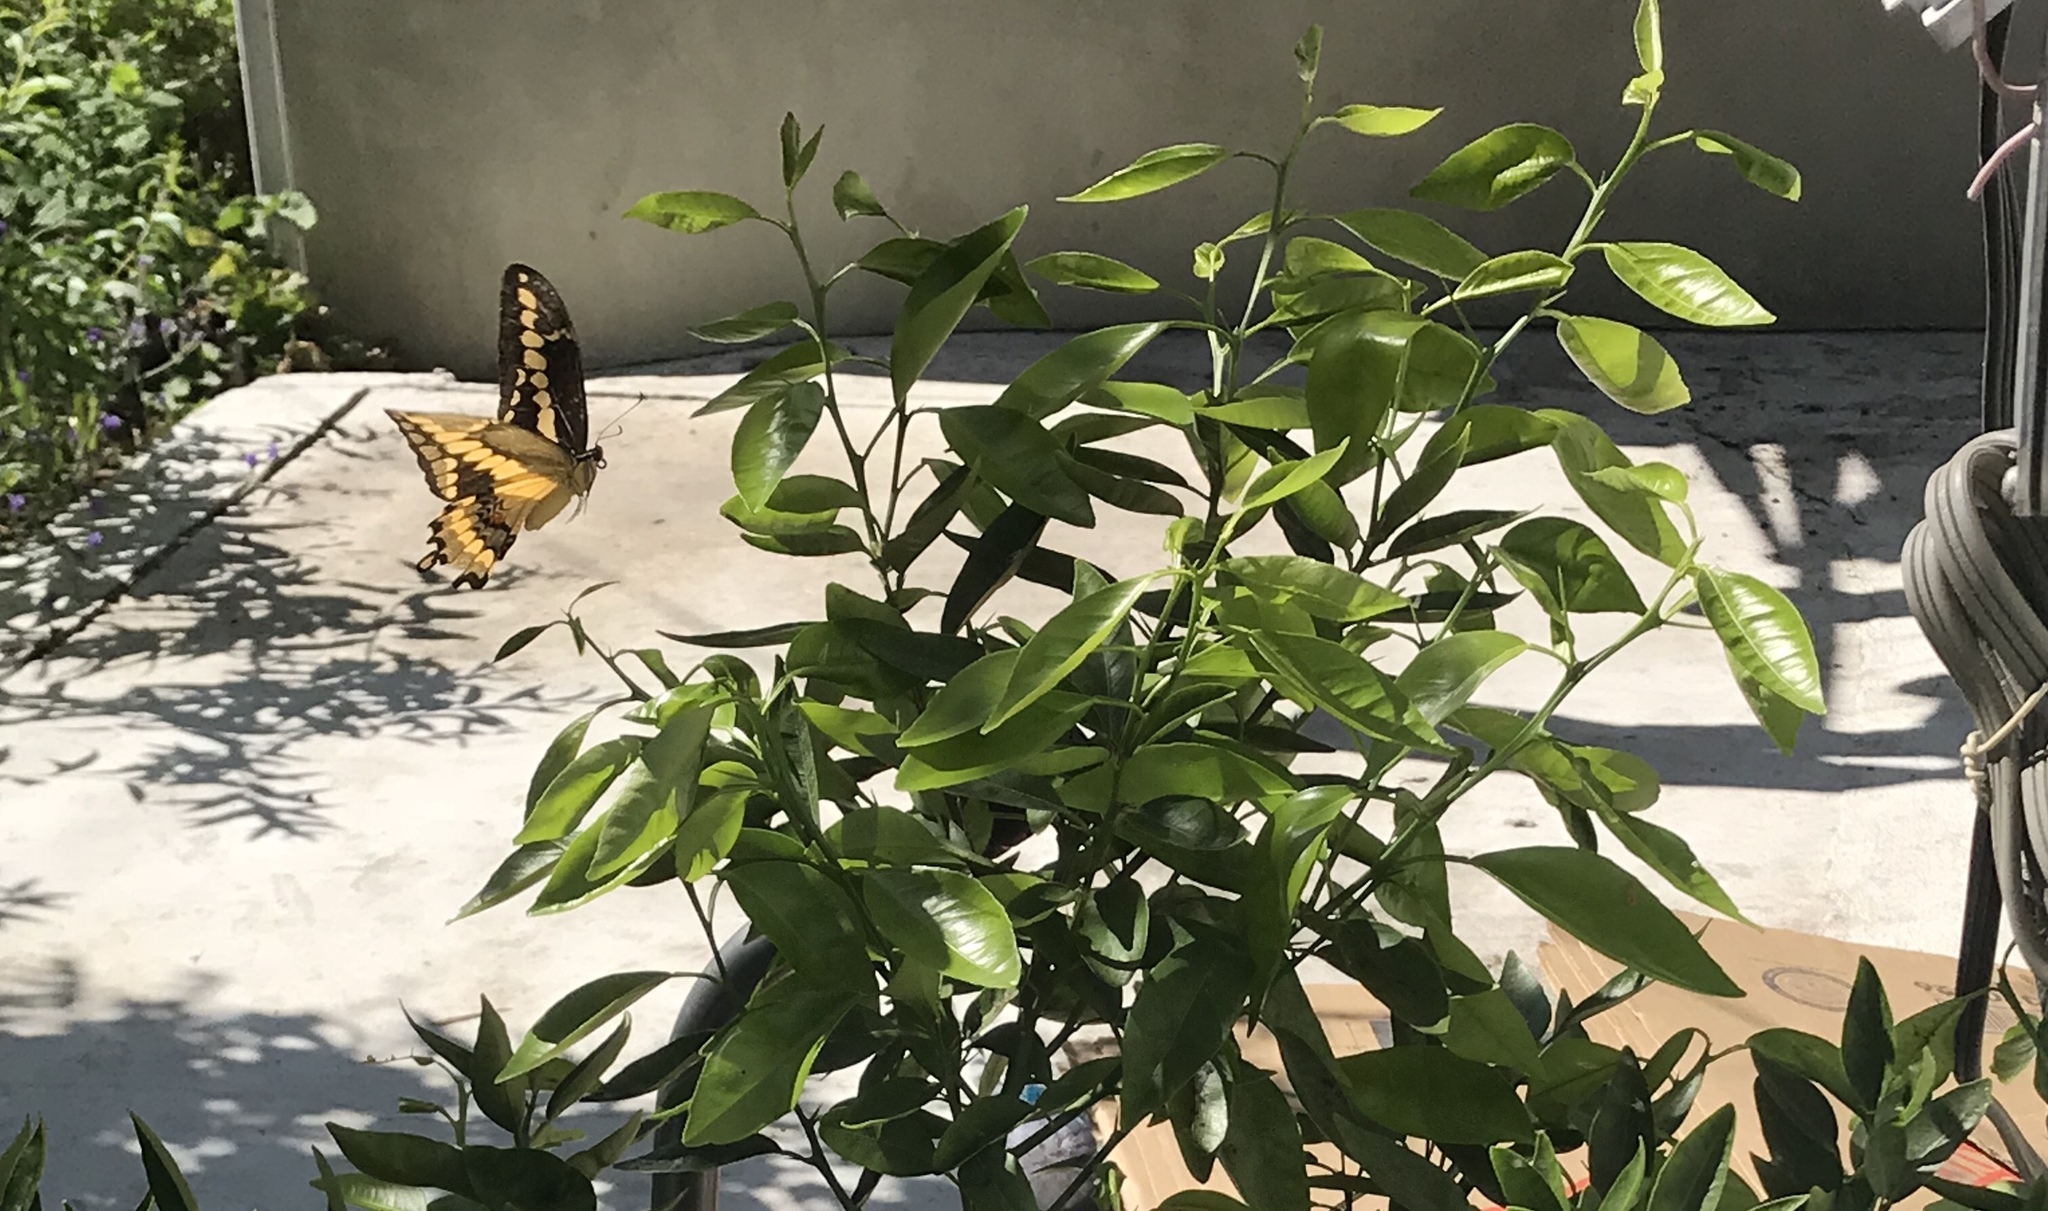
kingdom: Animalia
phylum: Arthropoda
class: Insecta
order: Lepidoptera
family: Papilionidae
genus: Papilio
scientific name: Papilio rumiko
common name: Western giant swallowtail
